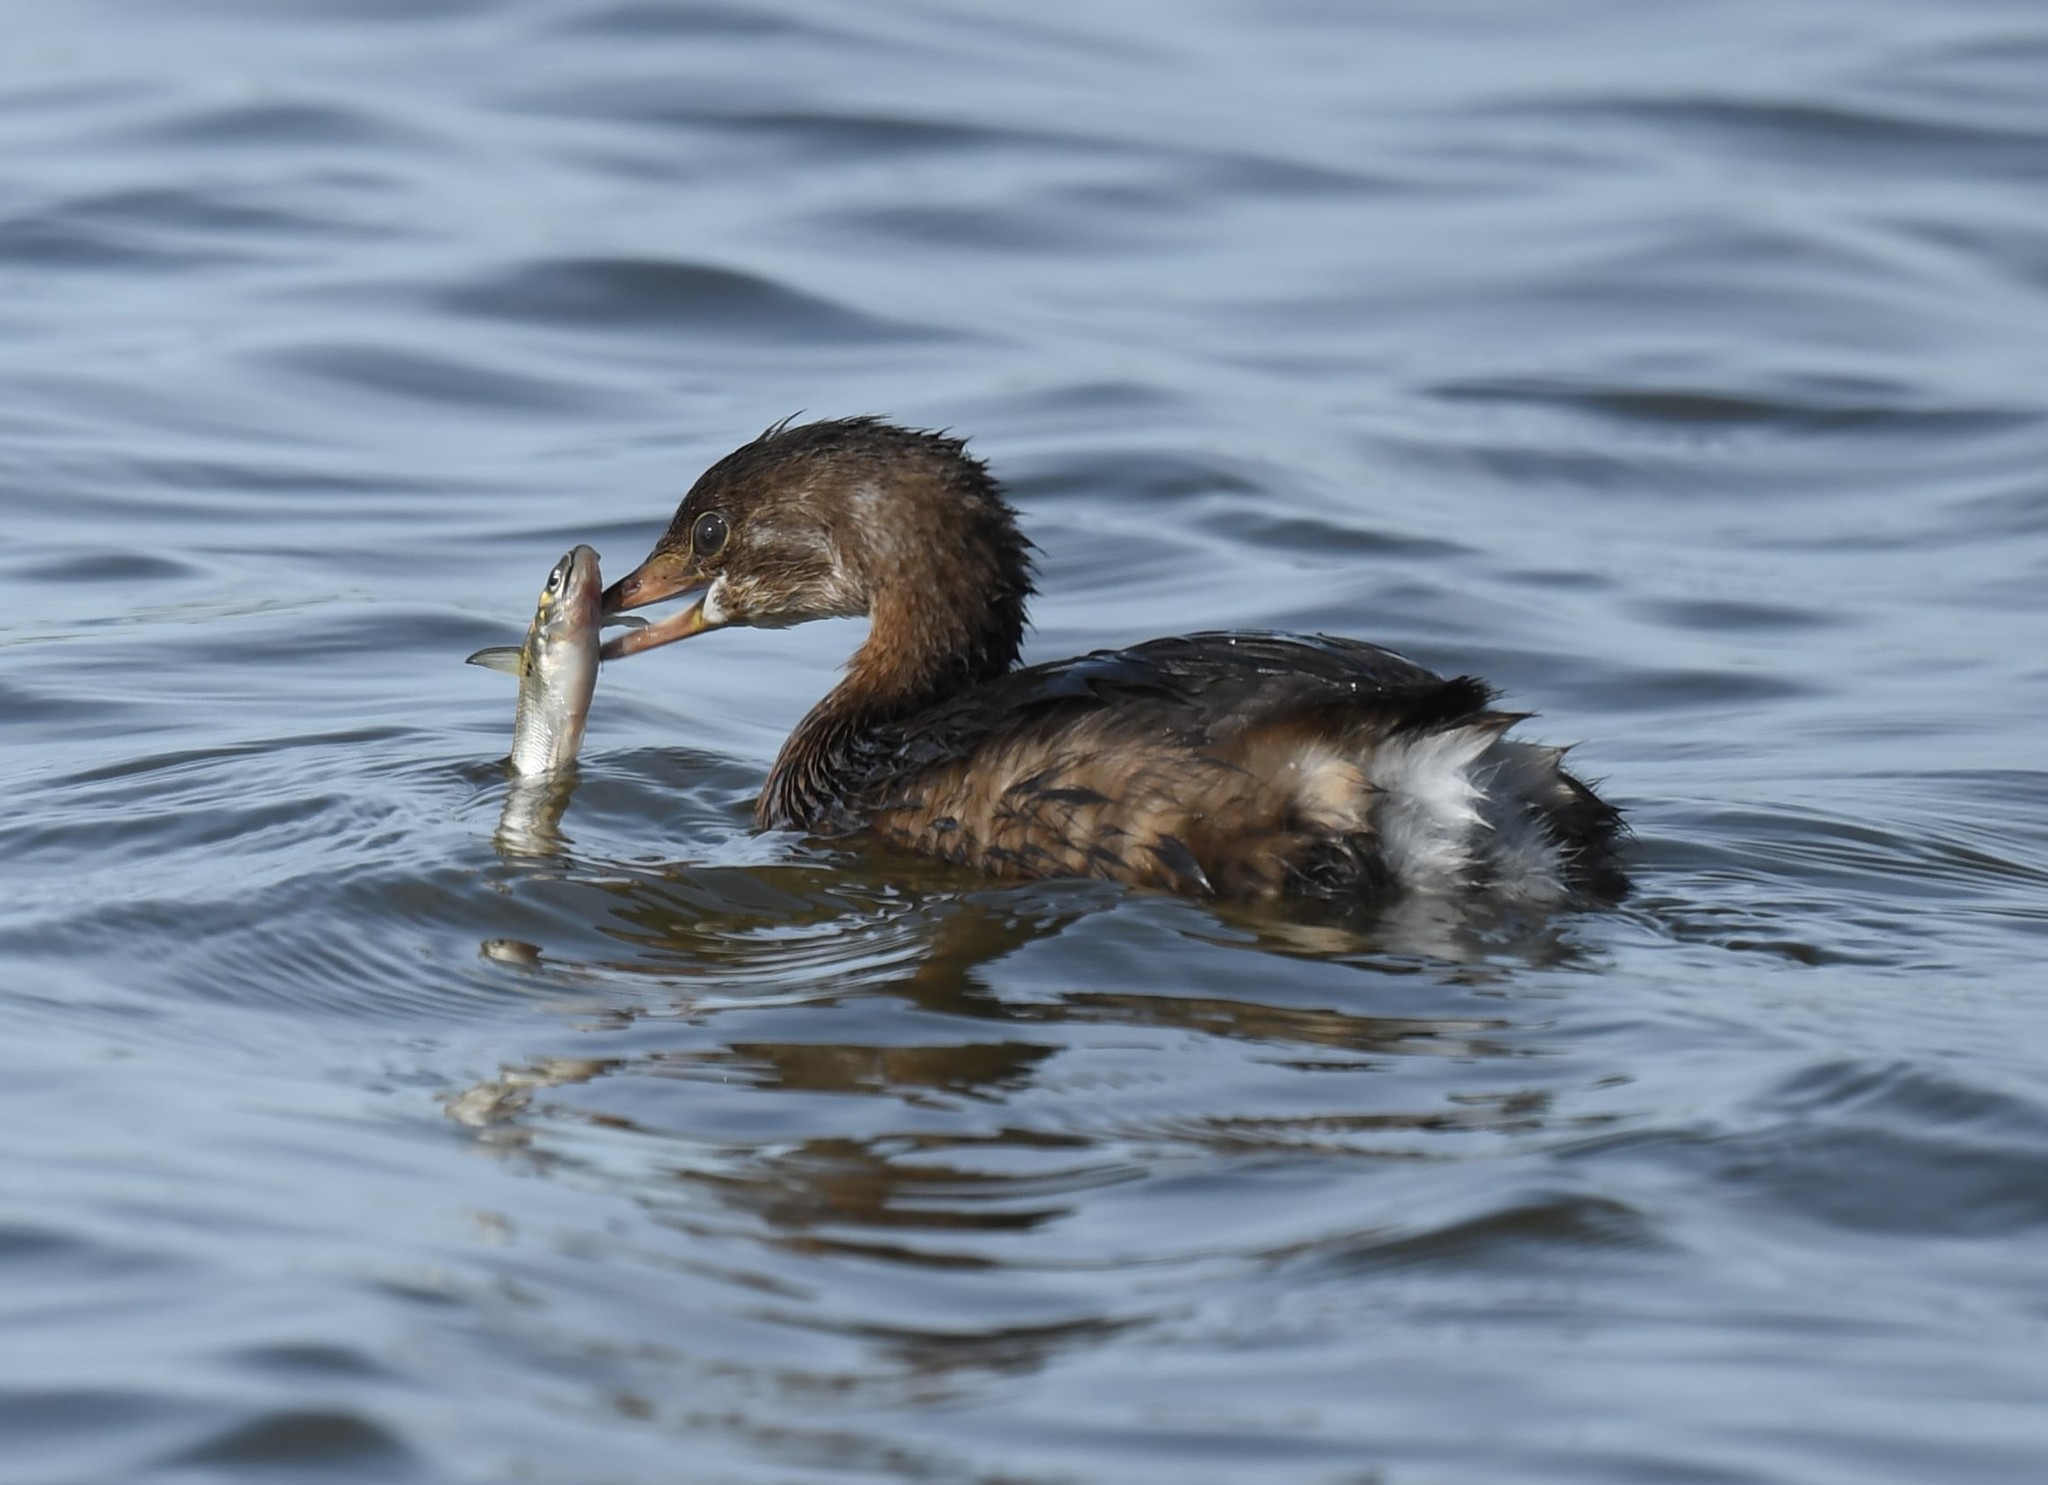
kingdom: Animalia
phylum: Chordata
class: Aves
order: Podicipediformes
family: Podicipedidae
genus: Podilymbus
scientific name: Podilymbus podiceps
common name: Pied-billed grebe
